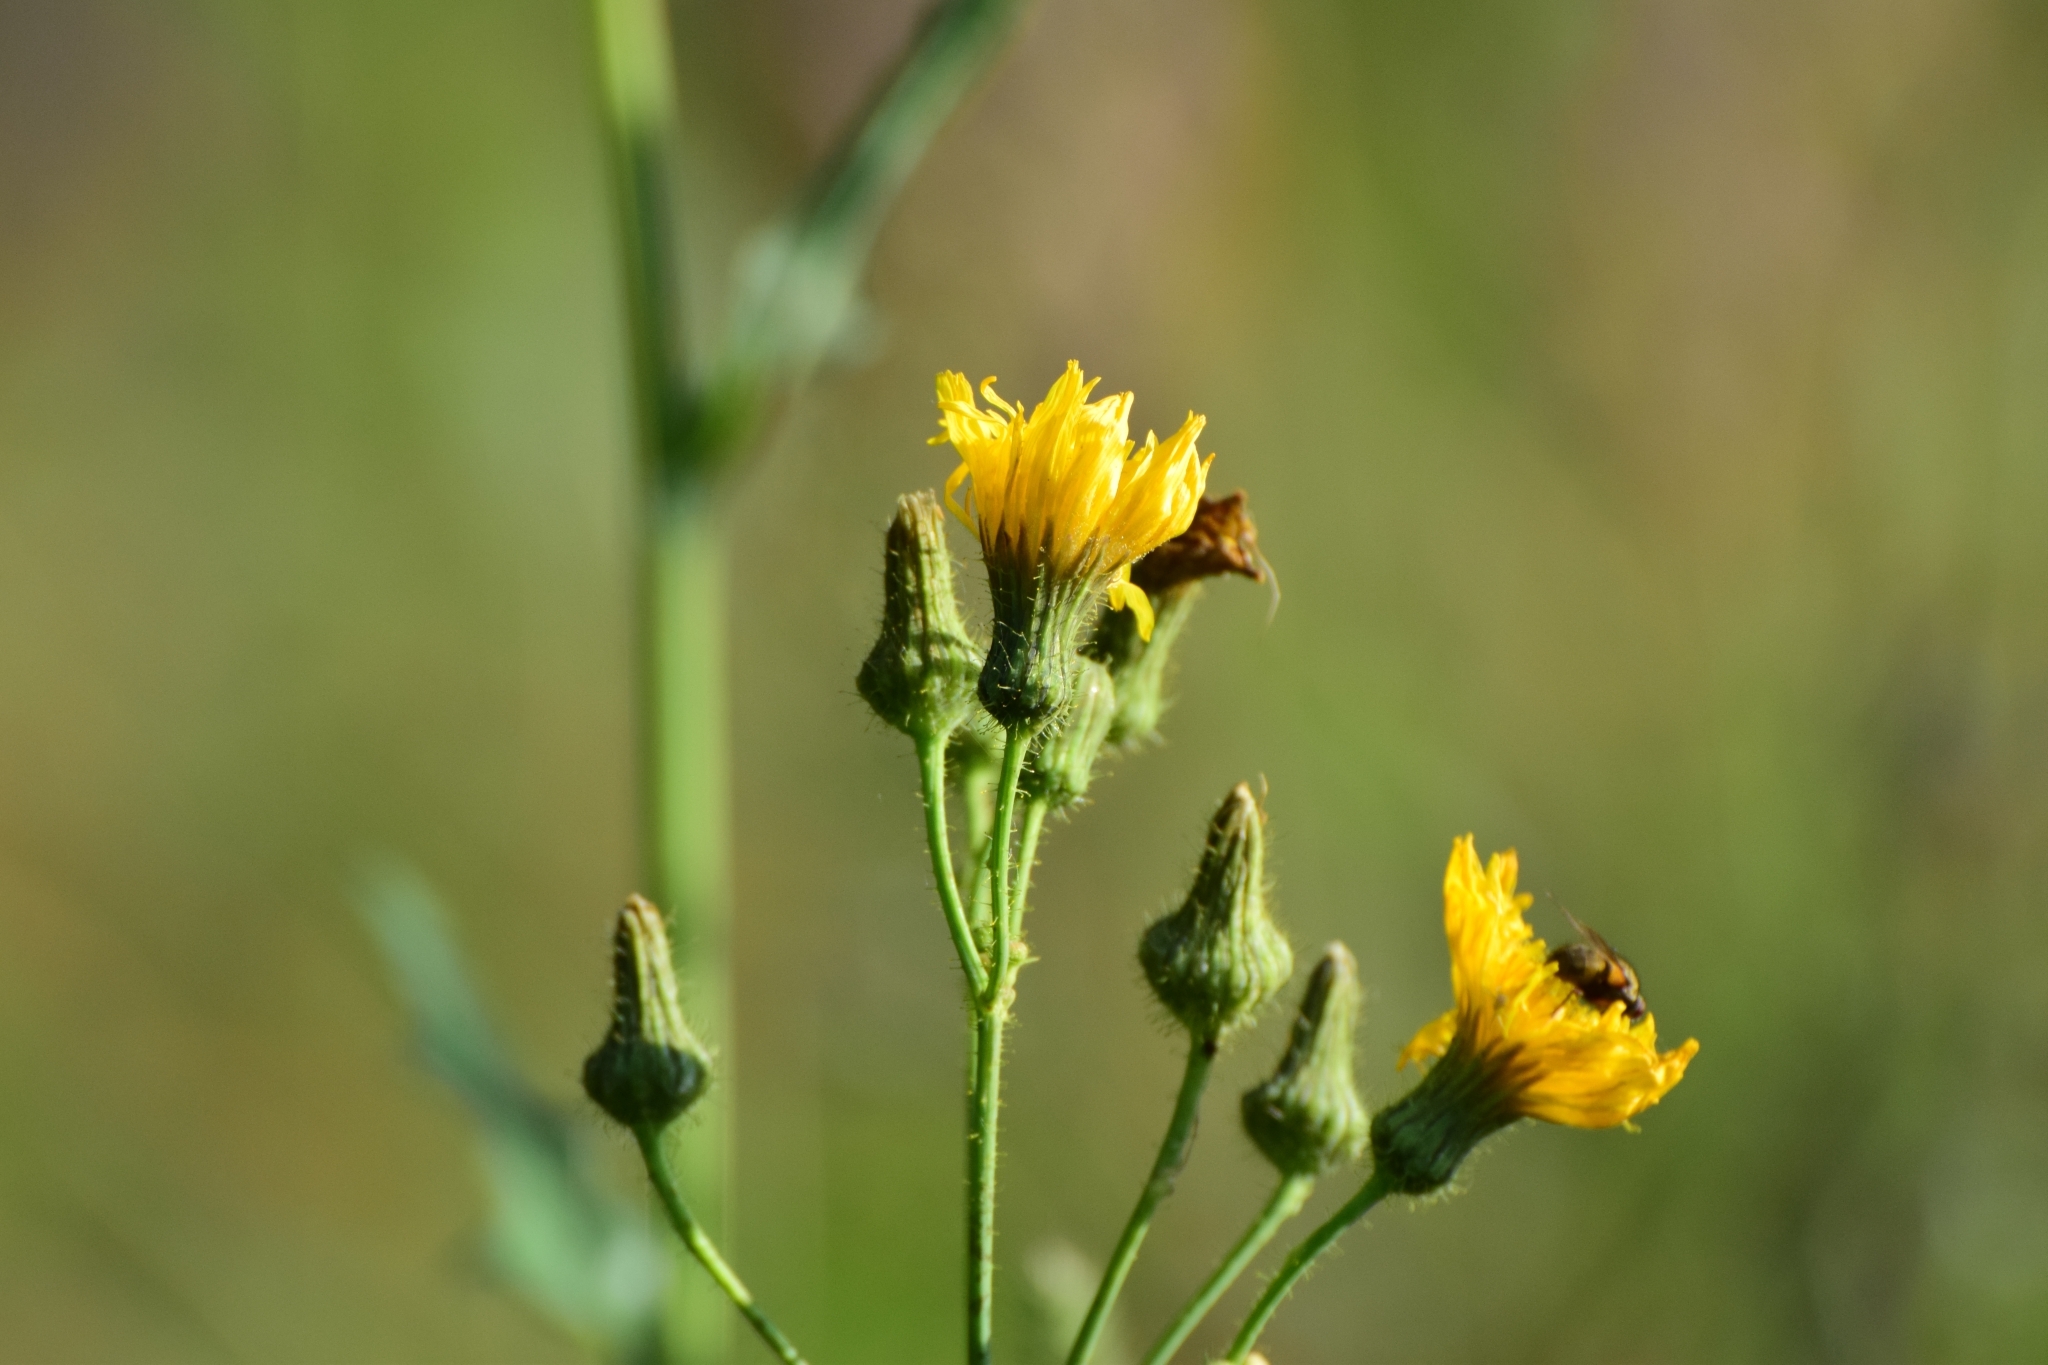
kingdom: Plantae
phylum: Tracheophyta
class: Magnoliopsida
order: Asterales
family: Asteraceae
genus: Sonchus
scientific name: Sonchus arvensis
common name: Perennial sow-thistle
